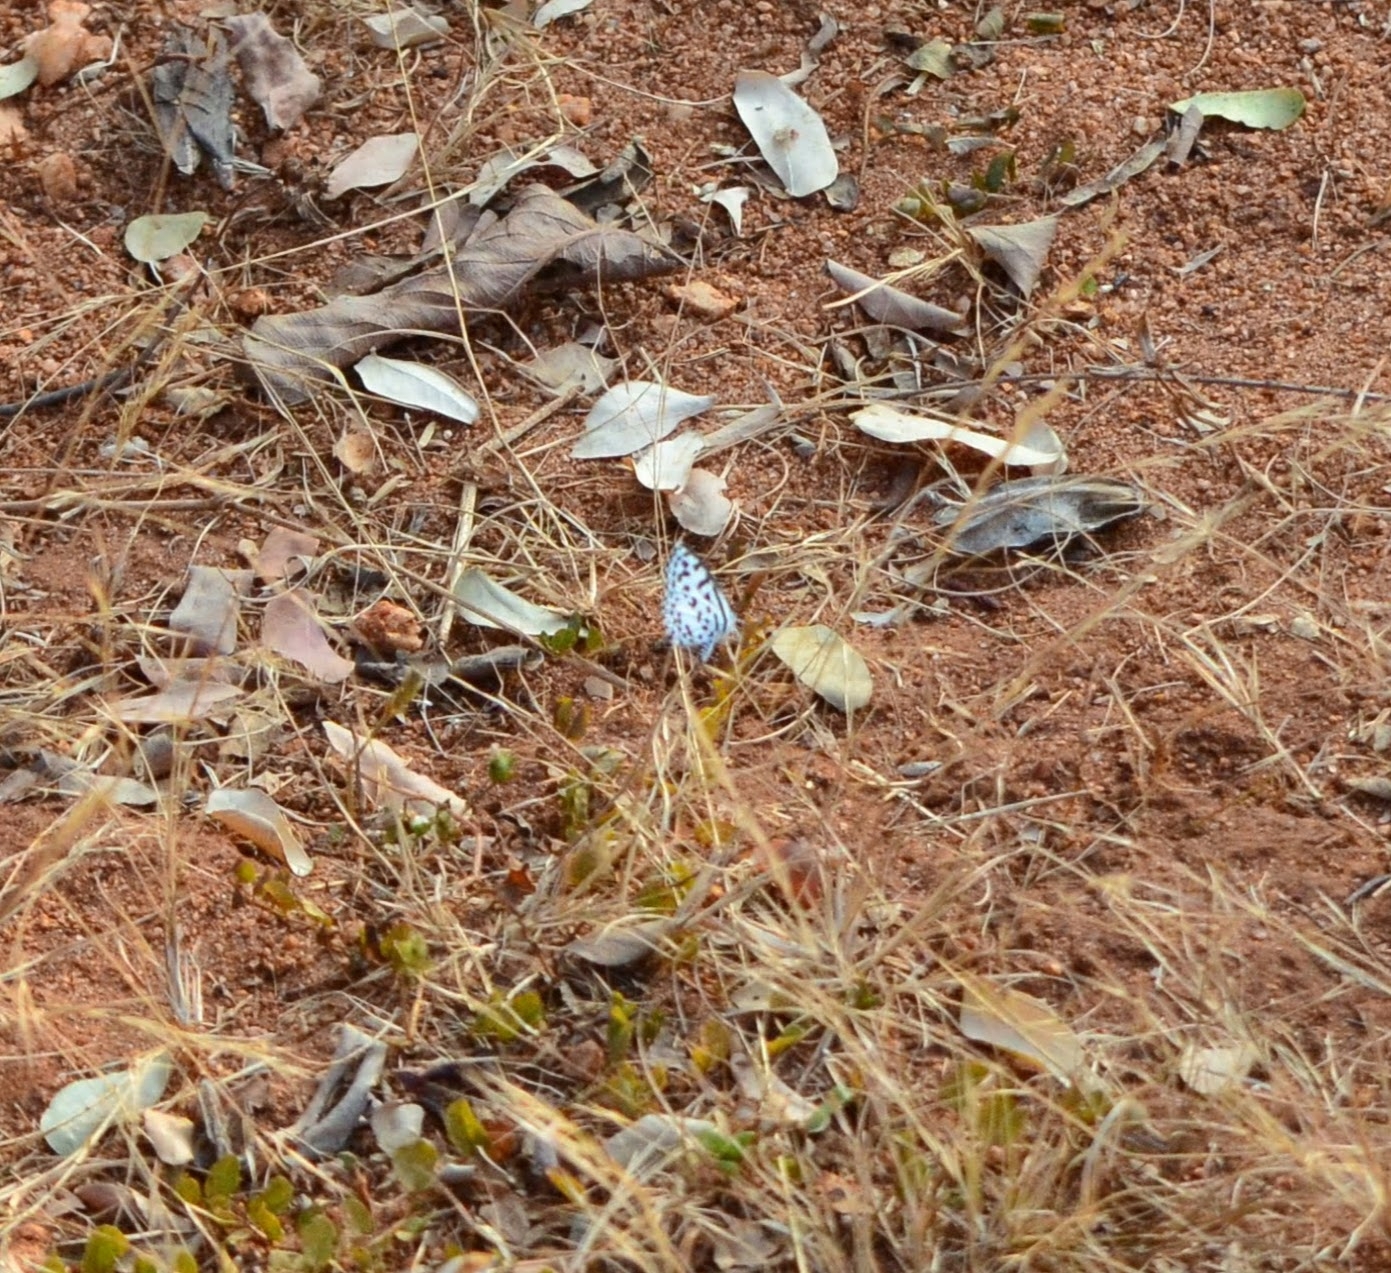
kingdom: Animalia
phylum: Arthropoda
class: Insecta
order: Lepidoptera
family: Lycaenidae
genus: Castalius
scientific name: Castalius rosimon
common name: Common pierrot
